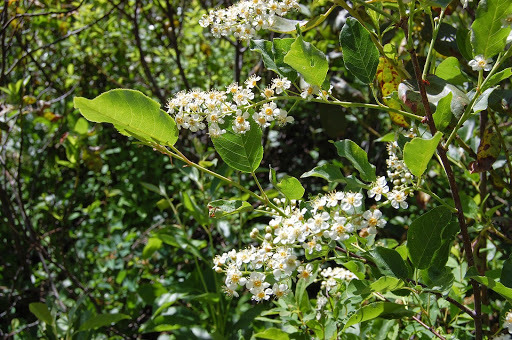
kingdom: Plantae
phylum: Tracheophyta
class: Magnoliopsida
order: Rosales
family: Rosaceae
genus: Prunus
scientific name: Prunus virginiana
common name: Chokecherry
